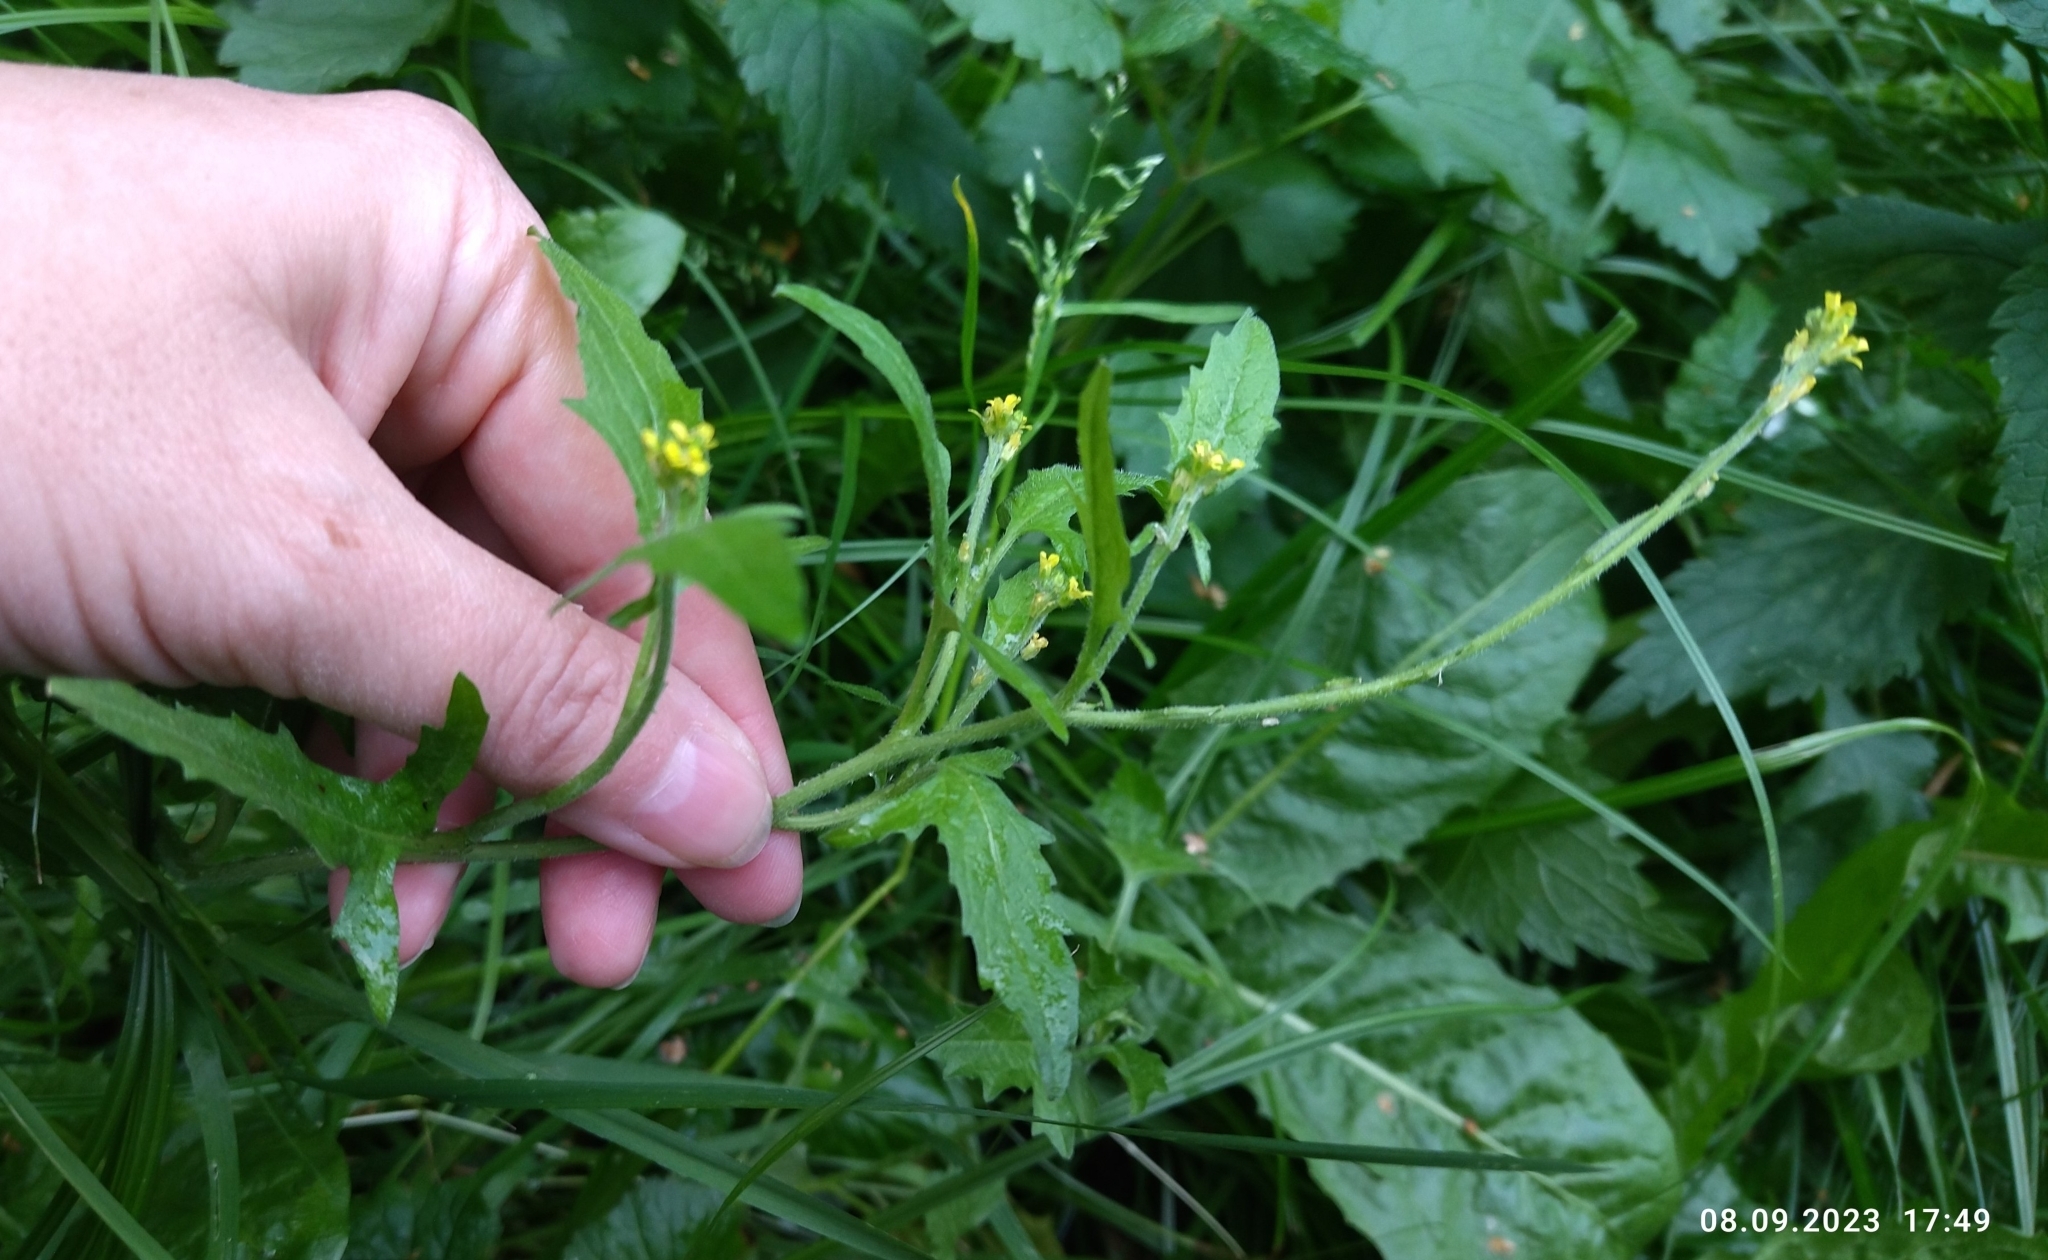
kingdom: Plantae
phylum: Tracheophyta
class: Magnoliopsida
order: Brassicales
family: Brassicaceae
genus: Sisymbrium
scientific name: Sisymbrium officinale
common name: Hedge mustard
